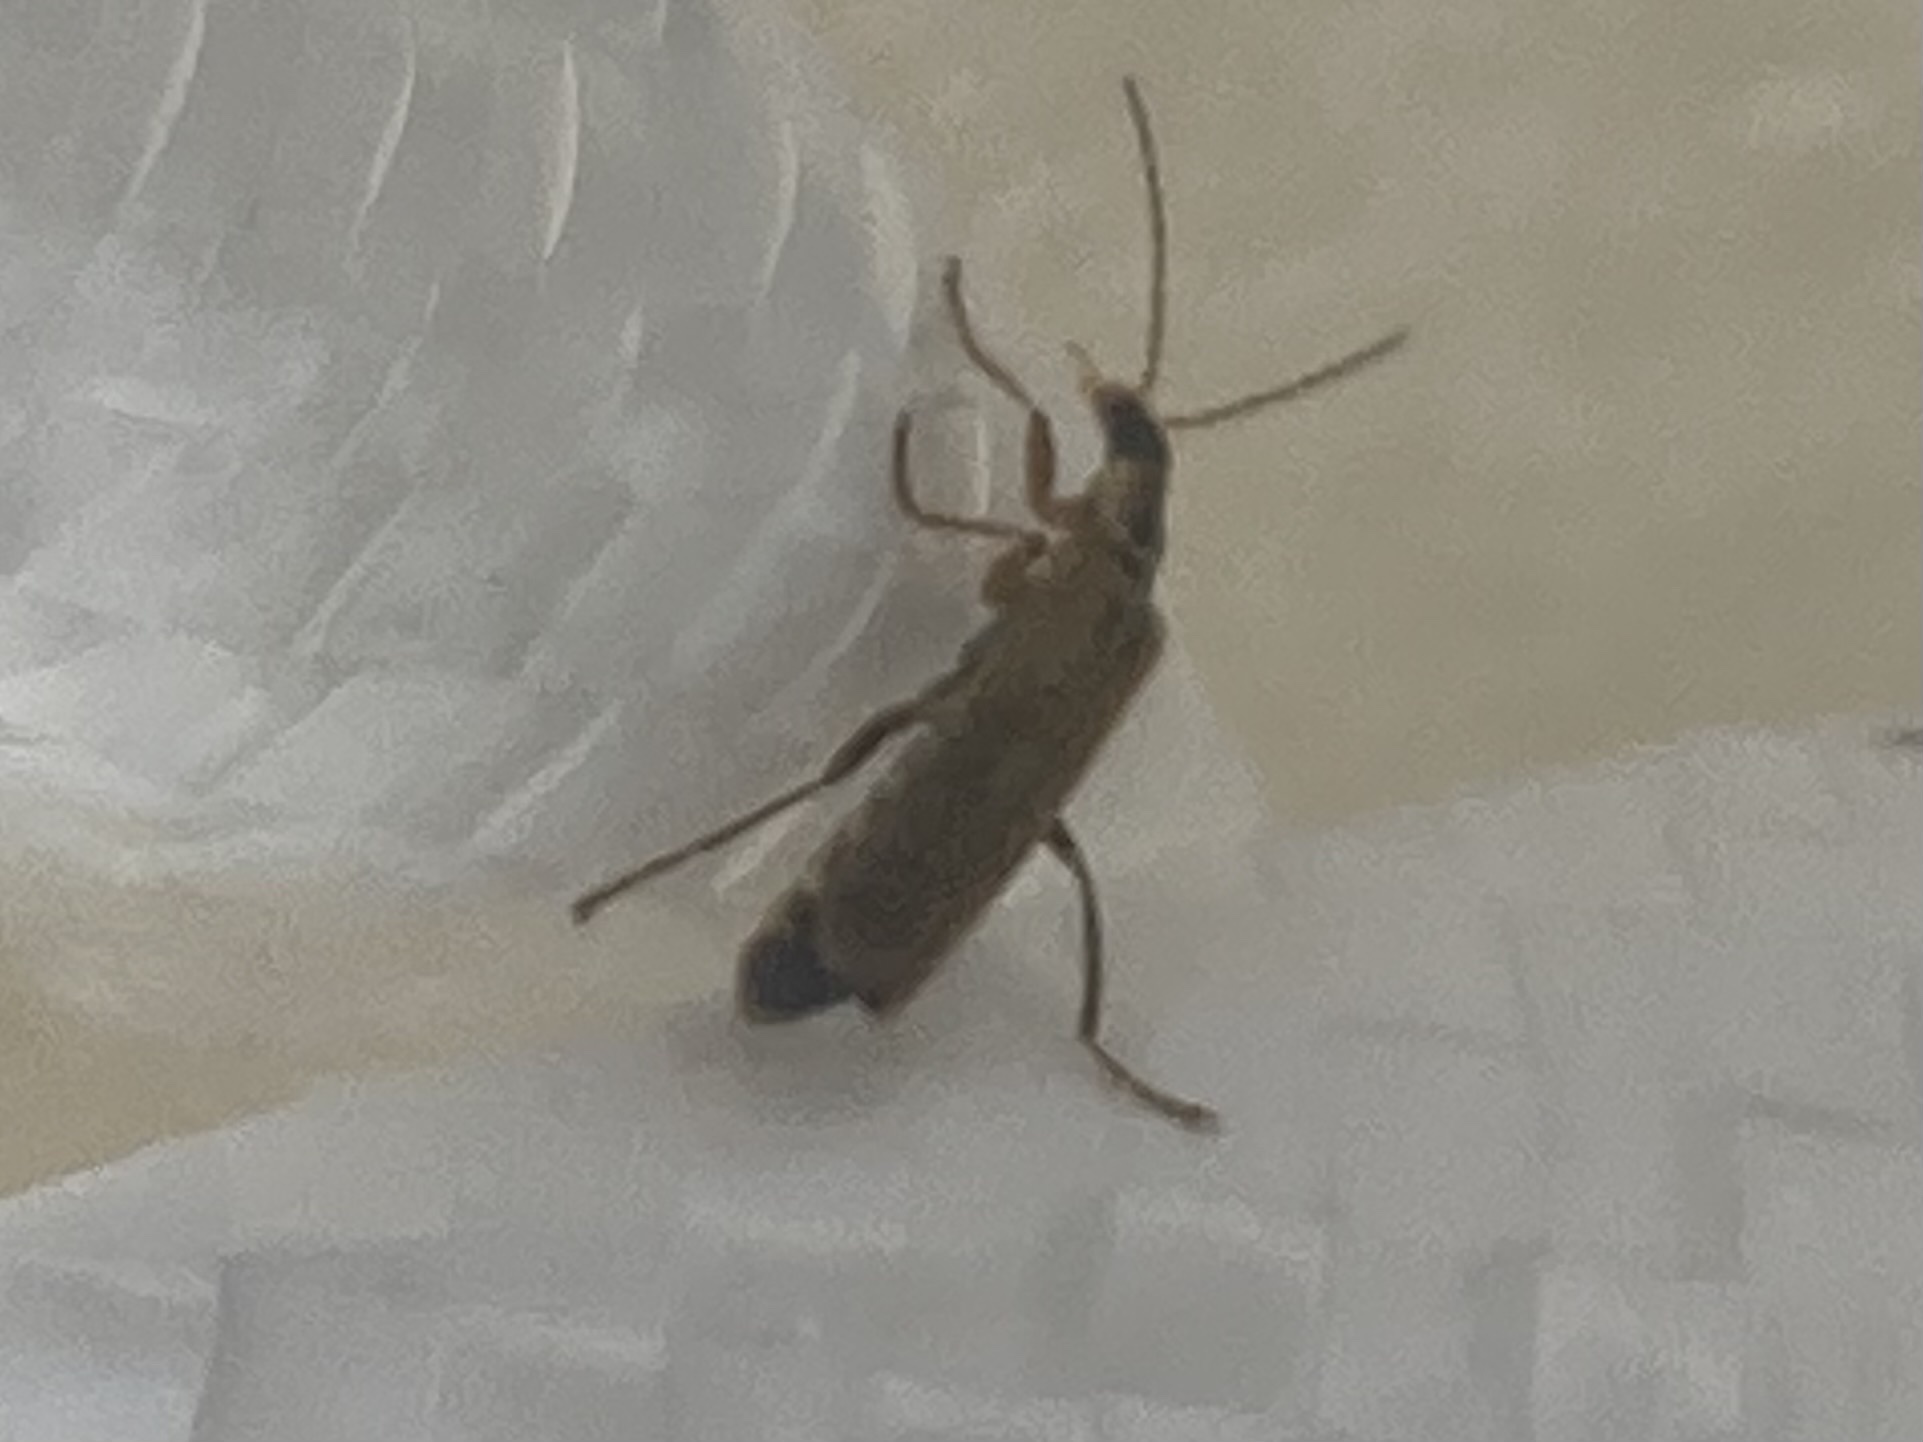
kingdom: Animalia
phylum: Arthropoda
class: Insecta
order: Coleoptera
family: Cantharidae
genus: Cantharis
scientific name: Cantharis decipiens
